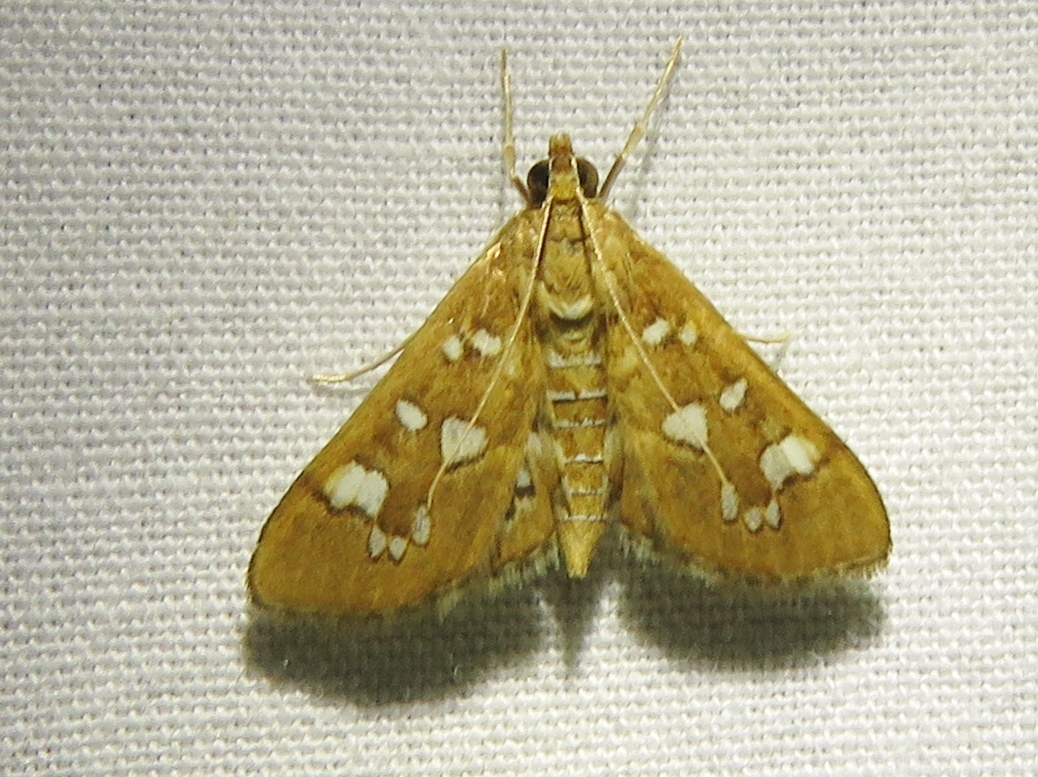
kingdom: Animalia
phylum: Arthropoda
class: Insecta
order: Lepidoptera
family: Crambidae
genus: Samea
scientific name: Samea baccatalis
